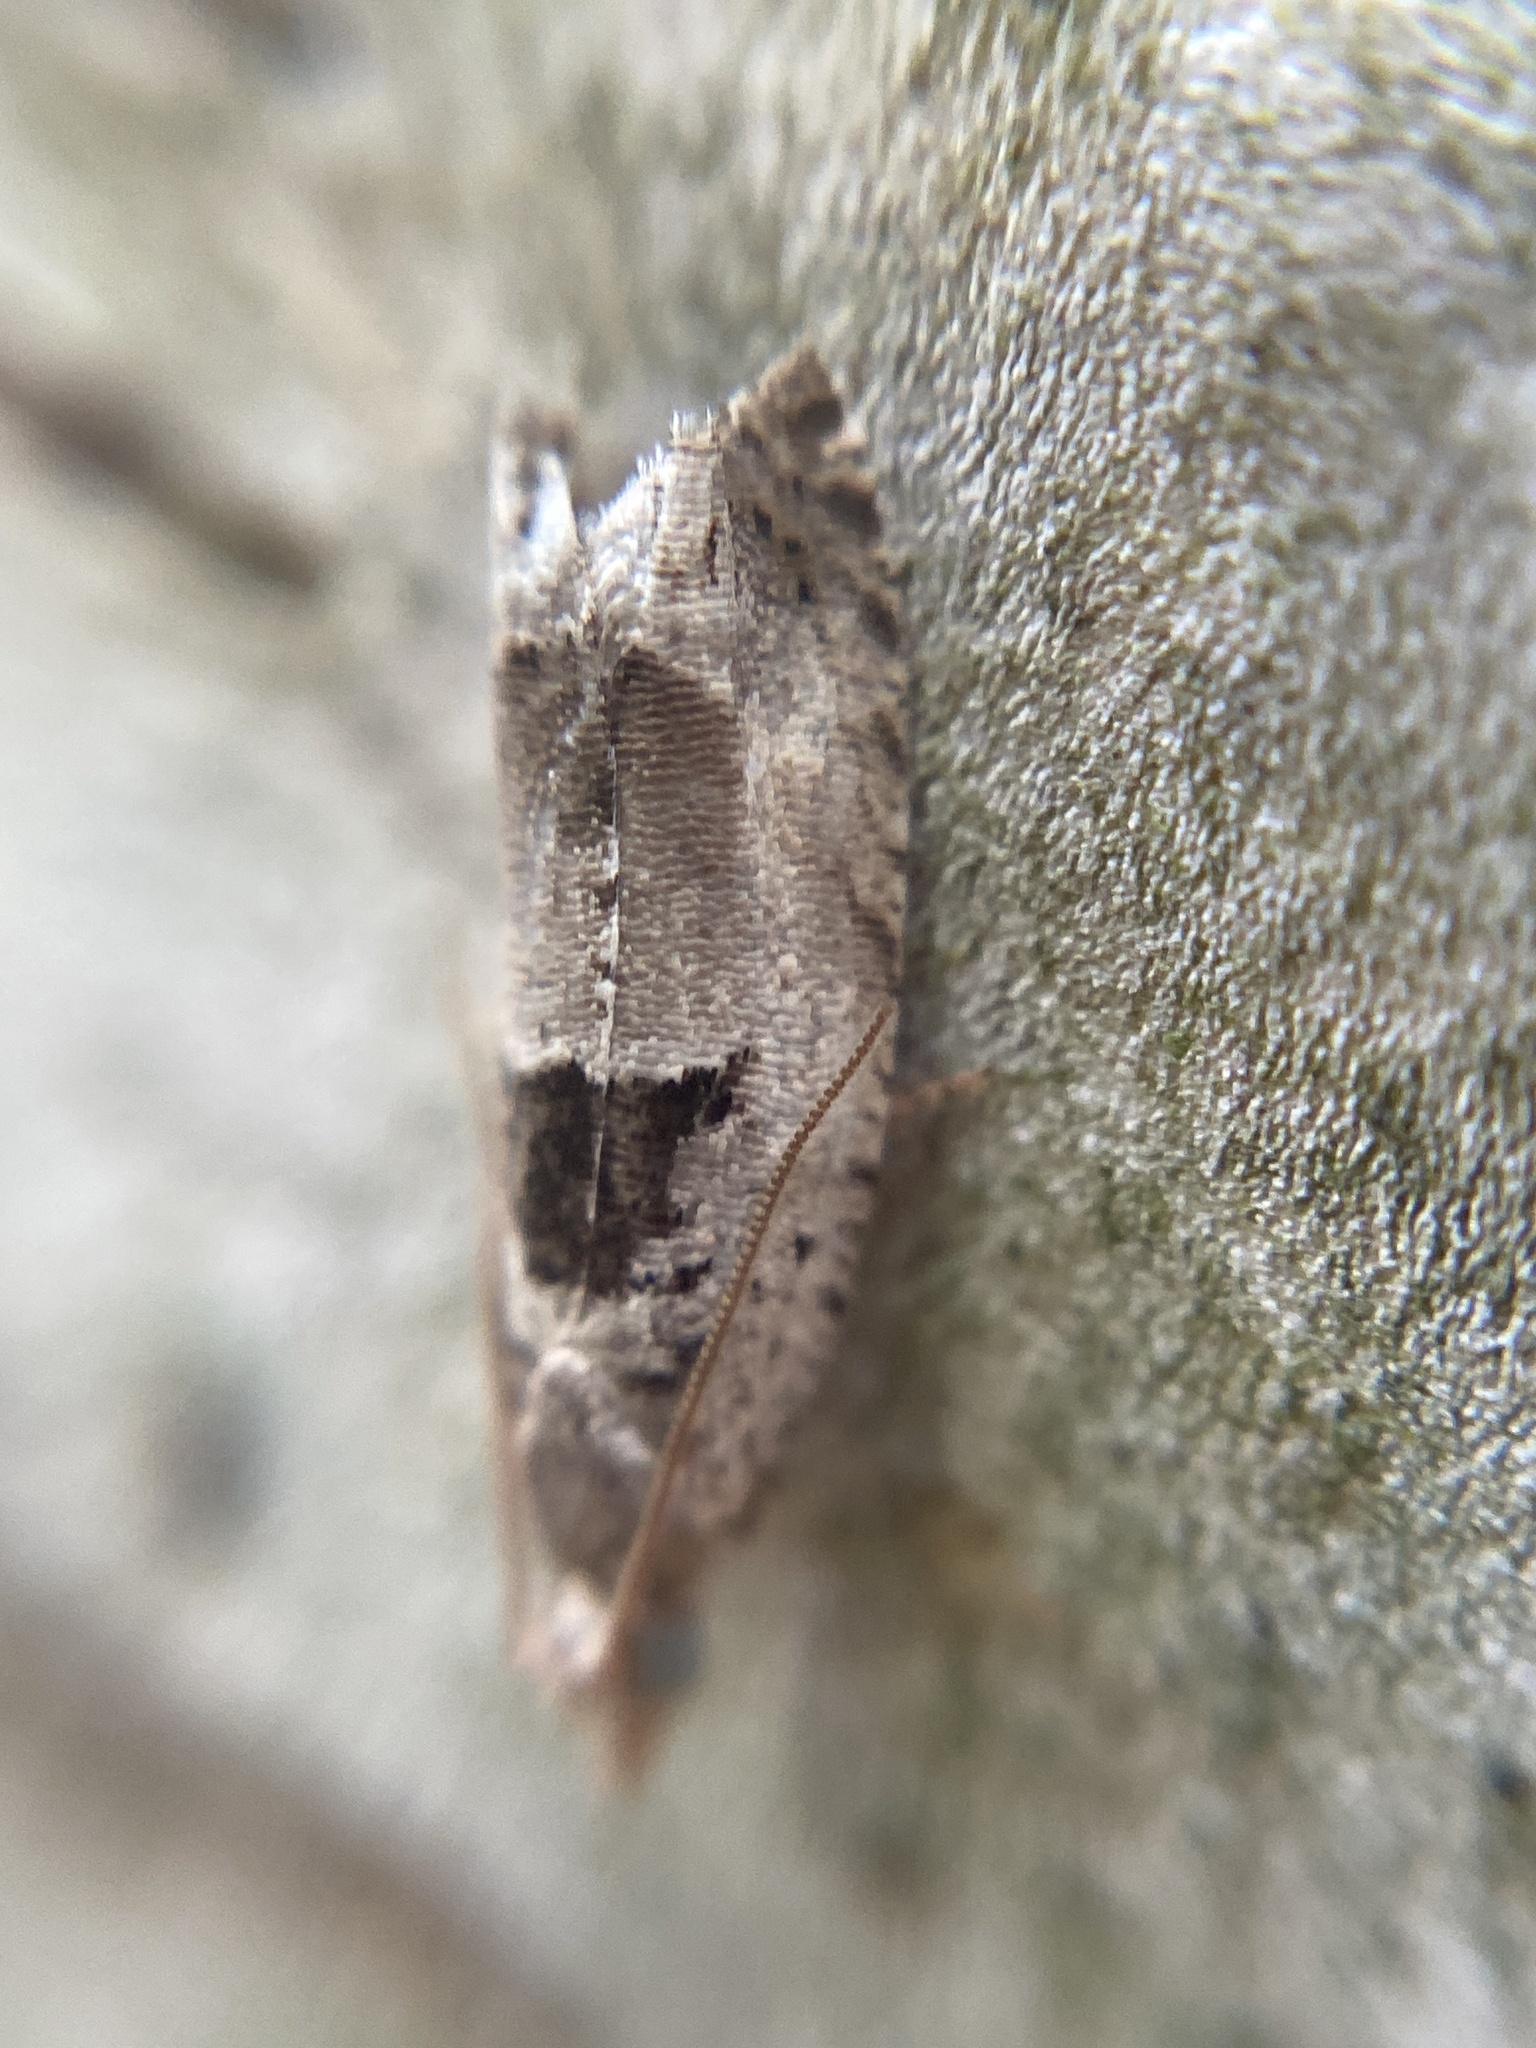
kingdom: Animalia
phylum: Arthropoda
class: Insecta
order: Lepidoptera
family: Tortricidae
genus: Epinotia
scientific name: Epinotia ramella
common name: Small birch bell
